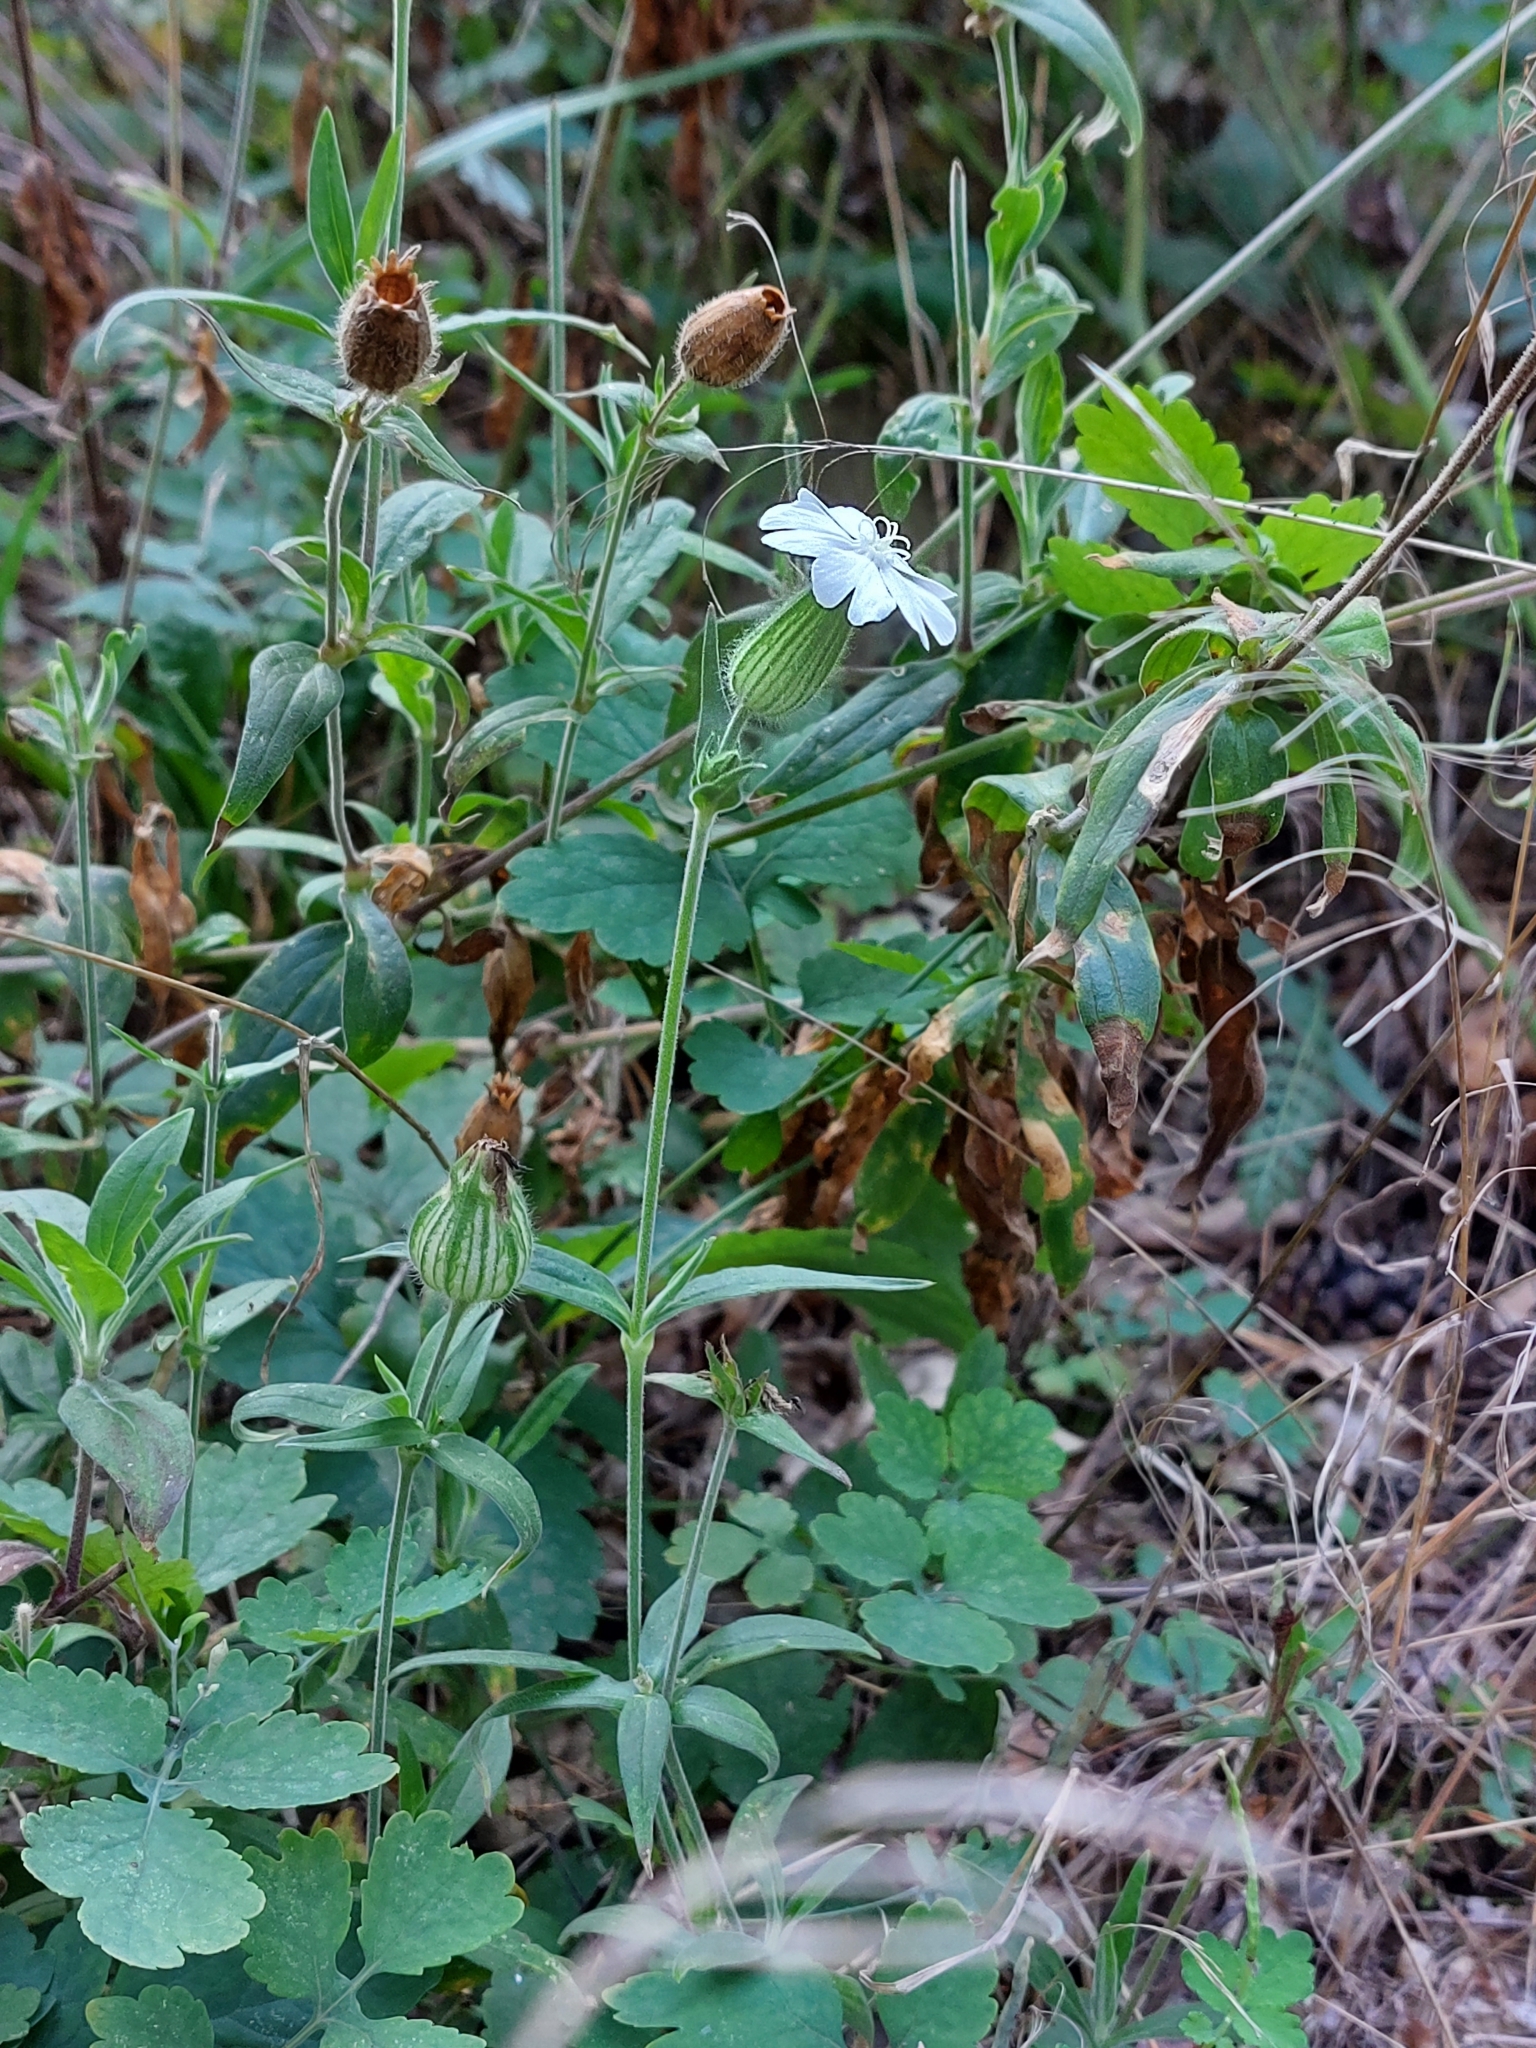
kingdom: Plantae
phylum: Tracheophyta
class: Magnoliopsida
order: Caryophyllales
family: Caryophyllaceae
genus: Silene
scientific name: Silene latifolia
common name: White campion
